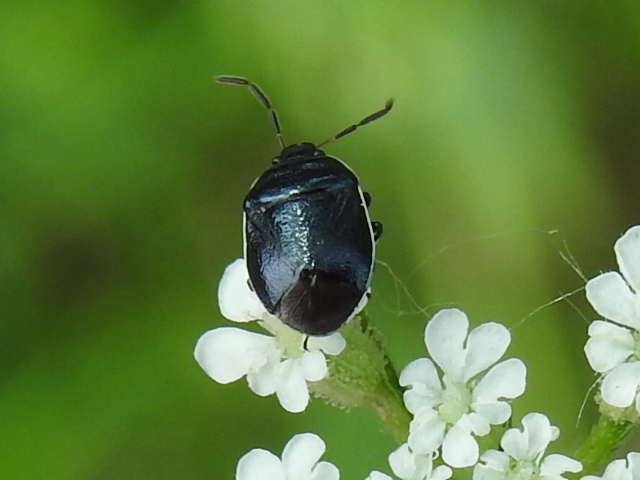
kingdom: Animalia
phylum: Arthropoda
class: Insecta
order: Hemiptera
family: Cydnidae
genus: Sehirus
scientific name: Sehirus cinctus
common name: White-margined burrower bug
